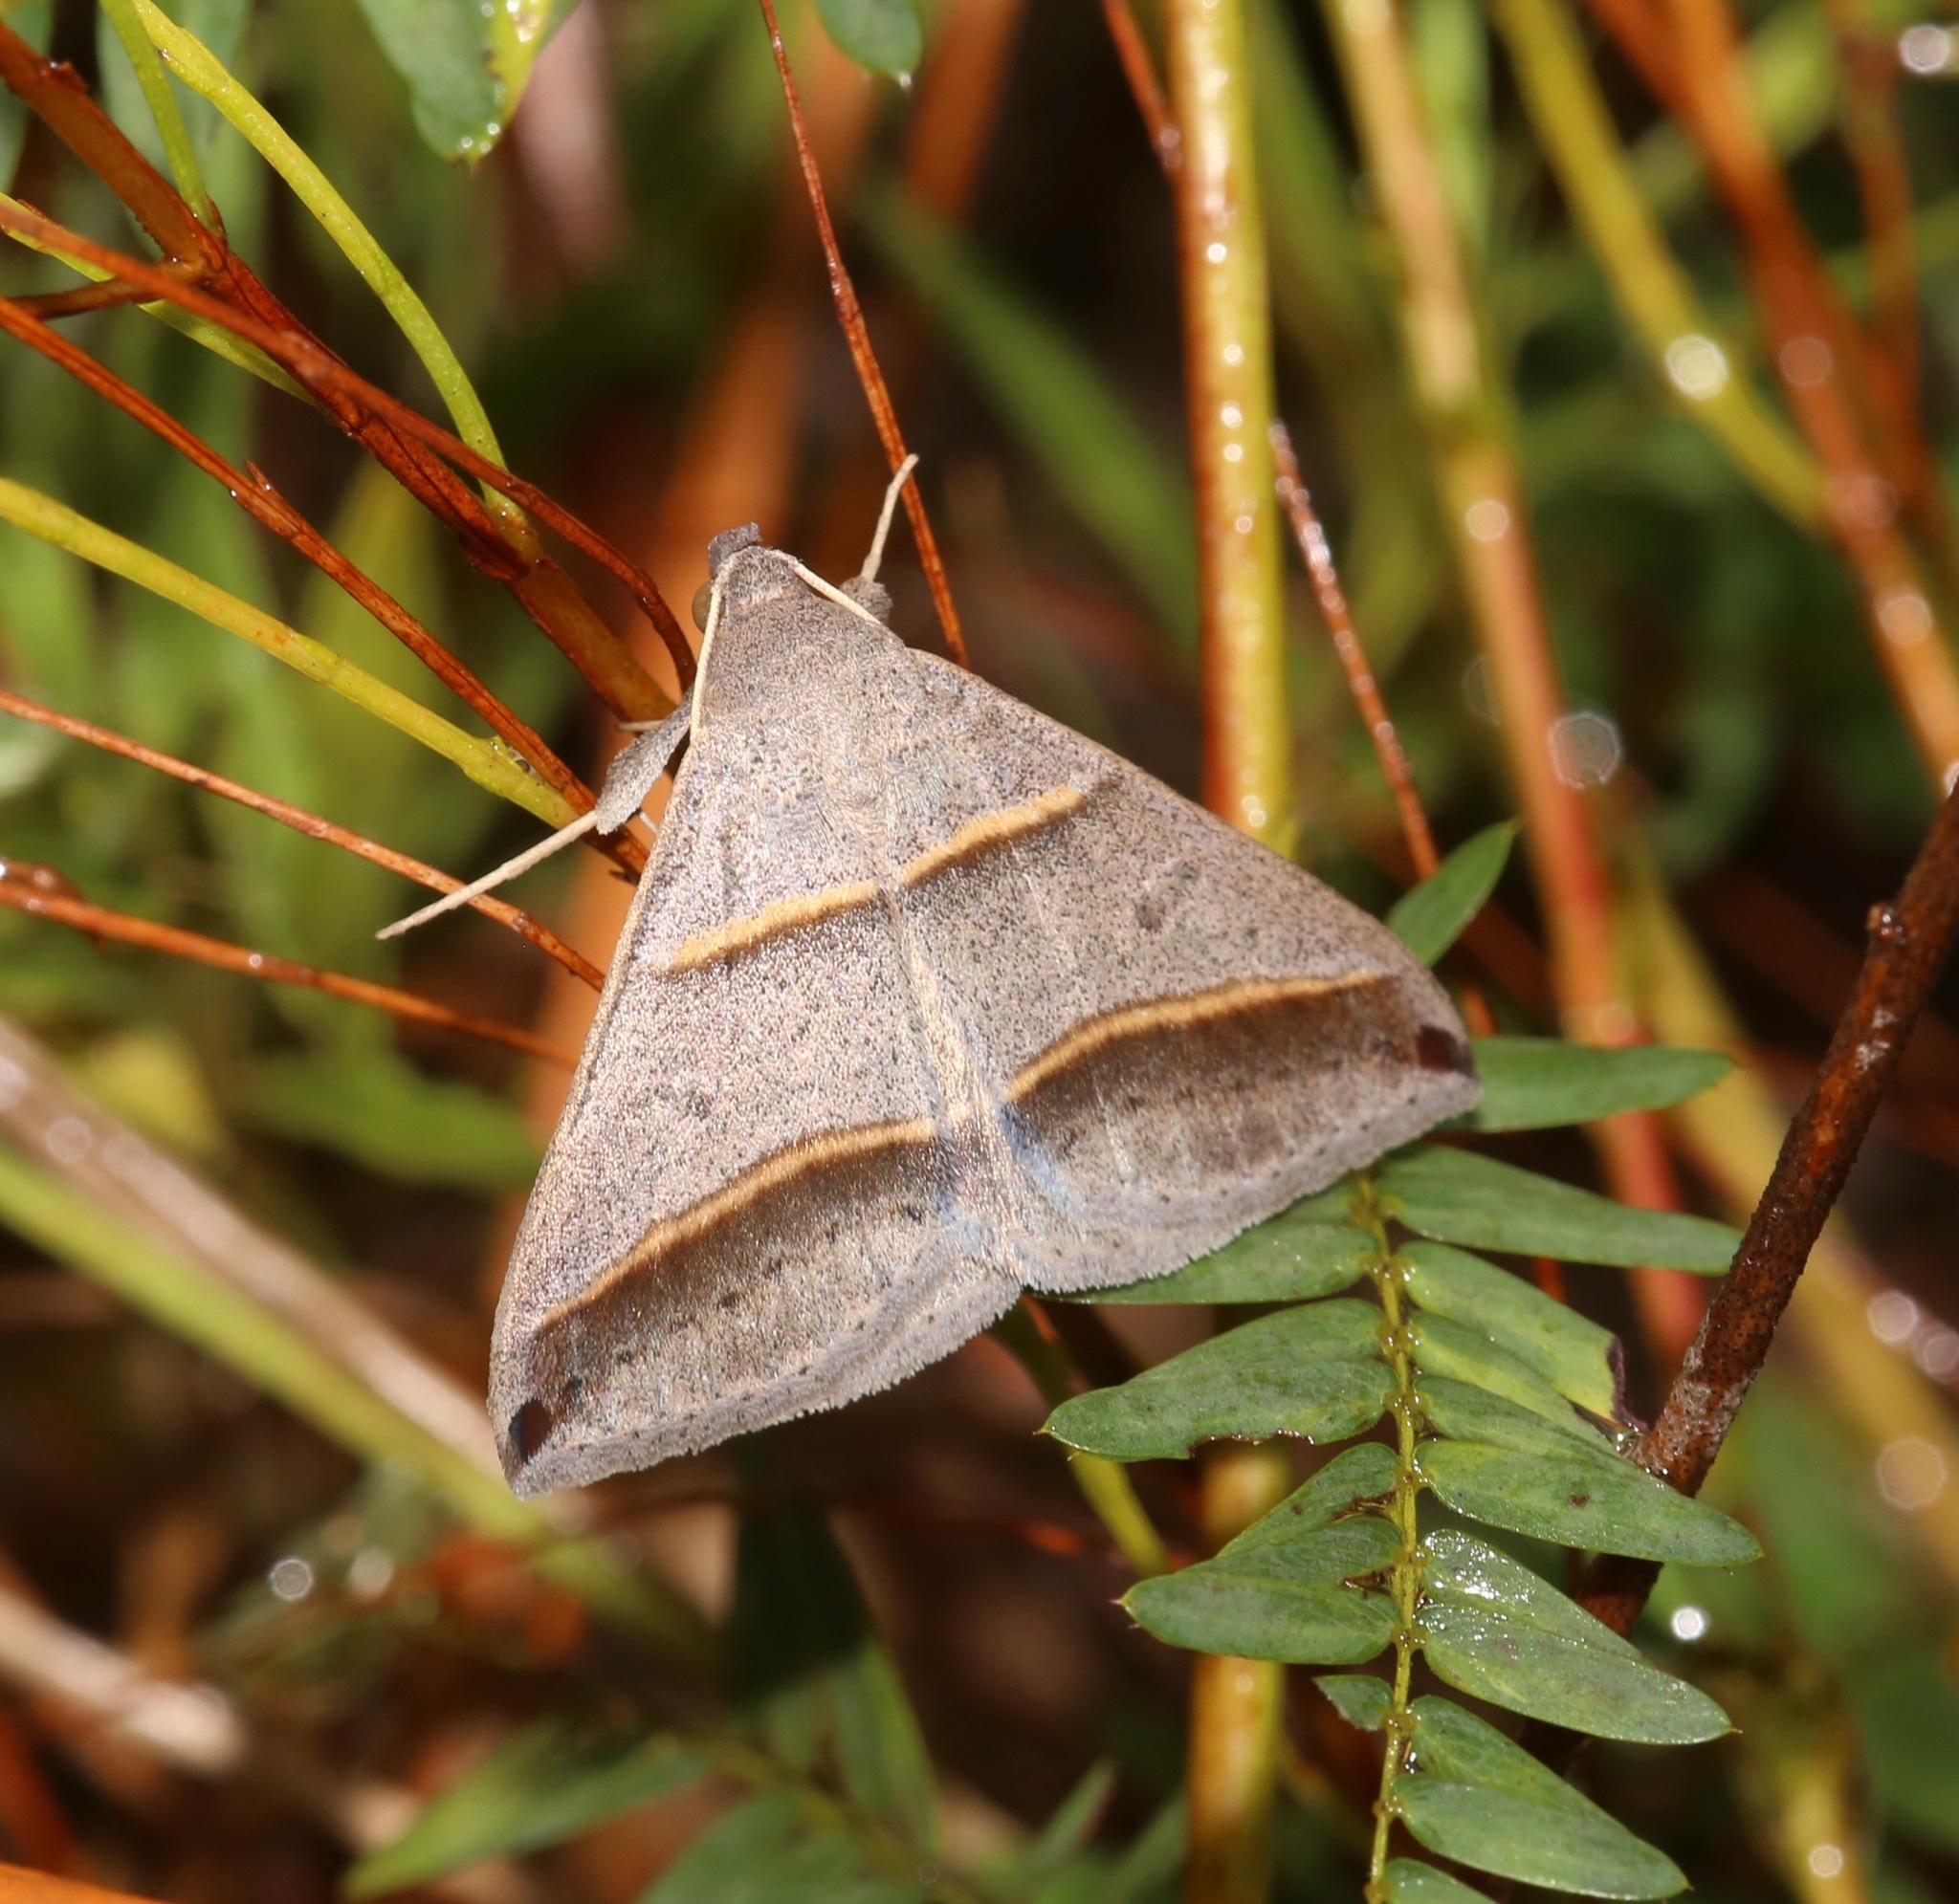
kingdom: Animalia
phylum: Arthropoda
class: Insecta
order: Lepidoptera
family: Erebidae
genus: Ptichodis
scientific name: Ptichodis vinculum
